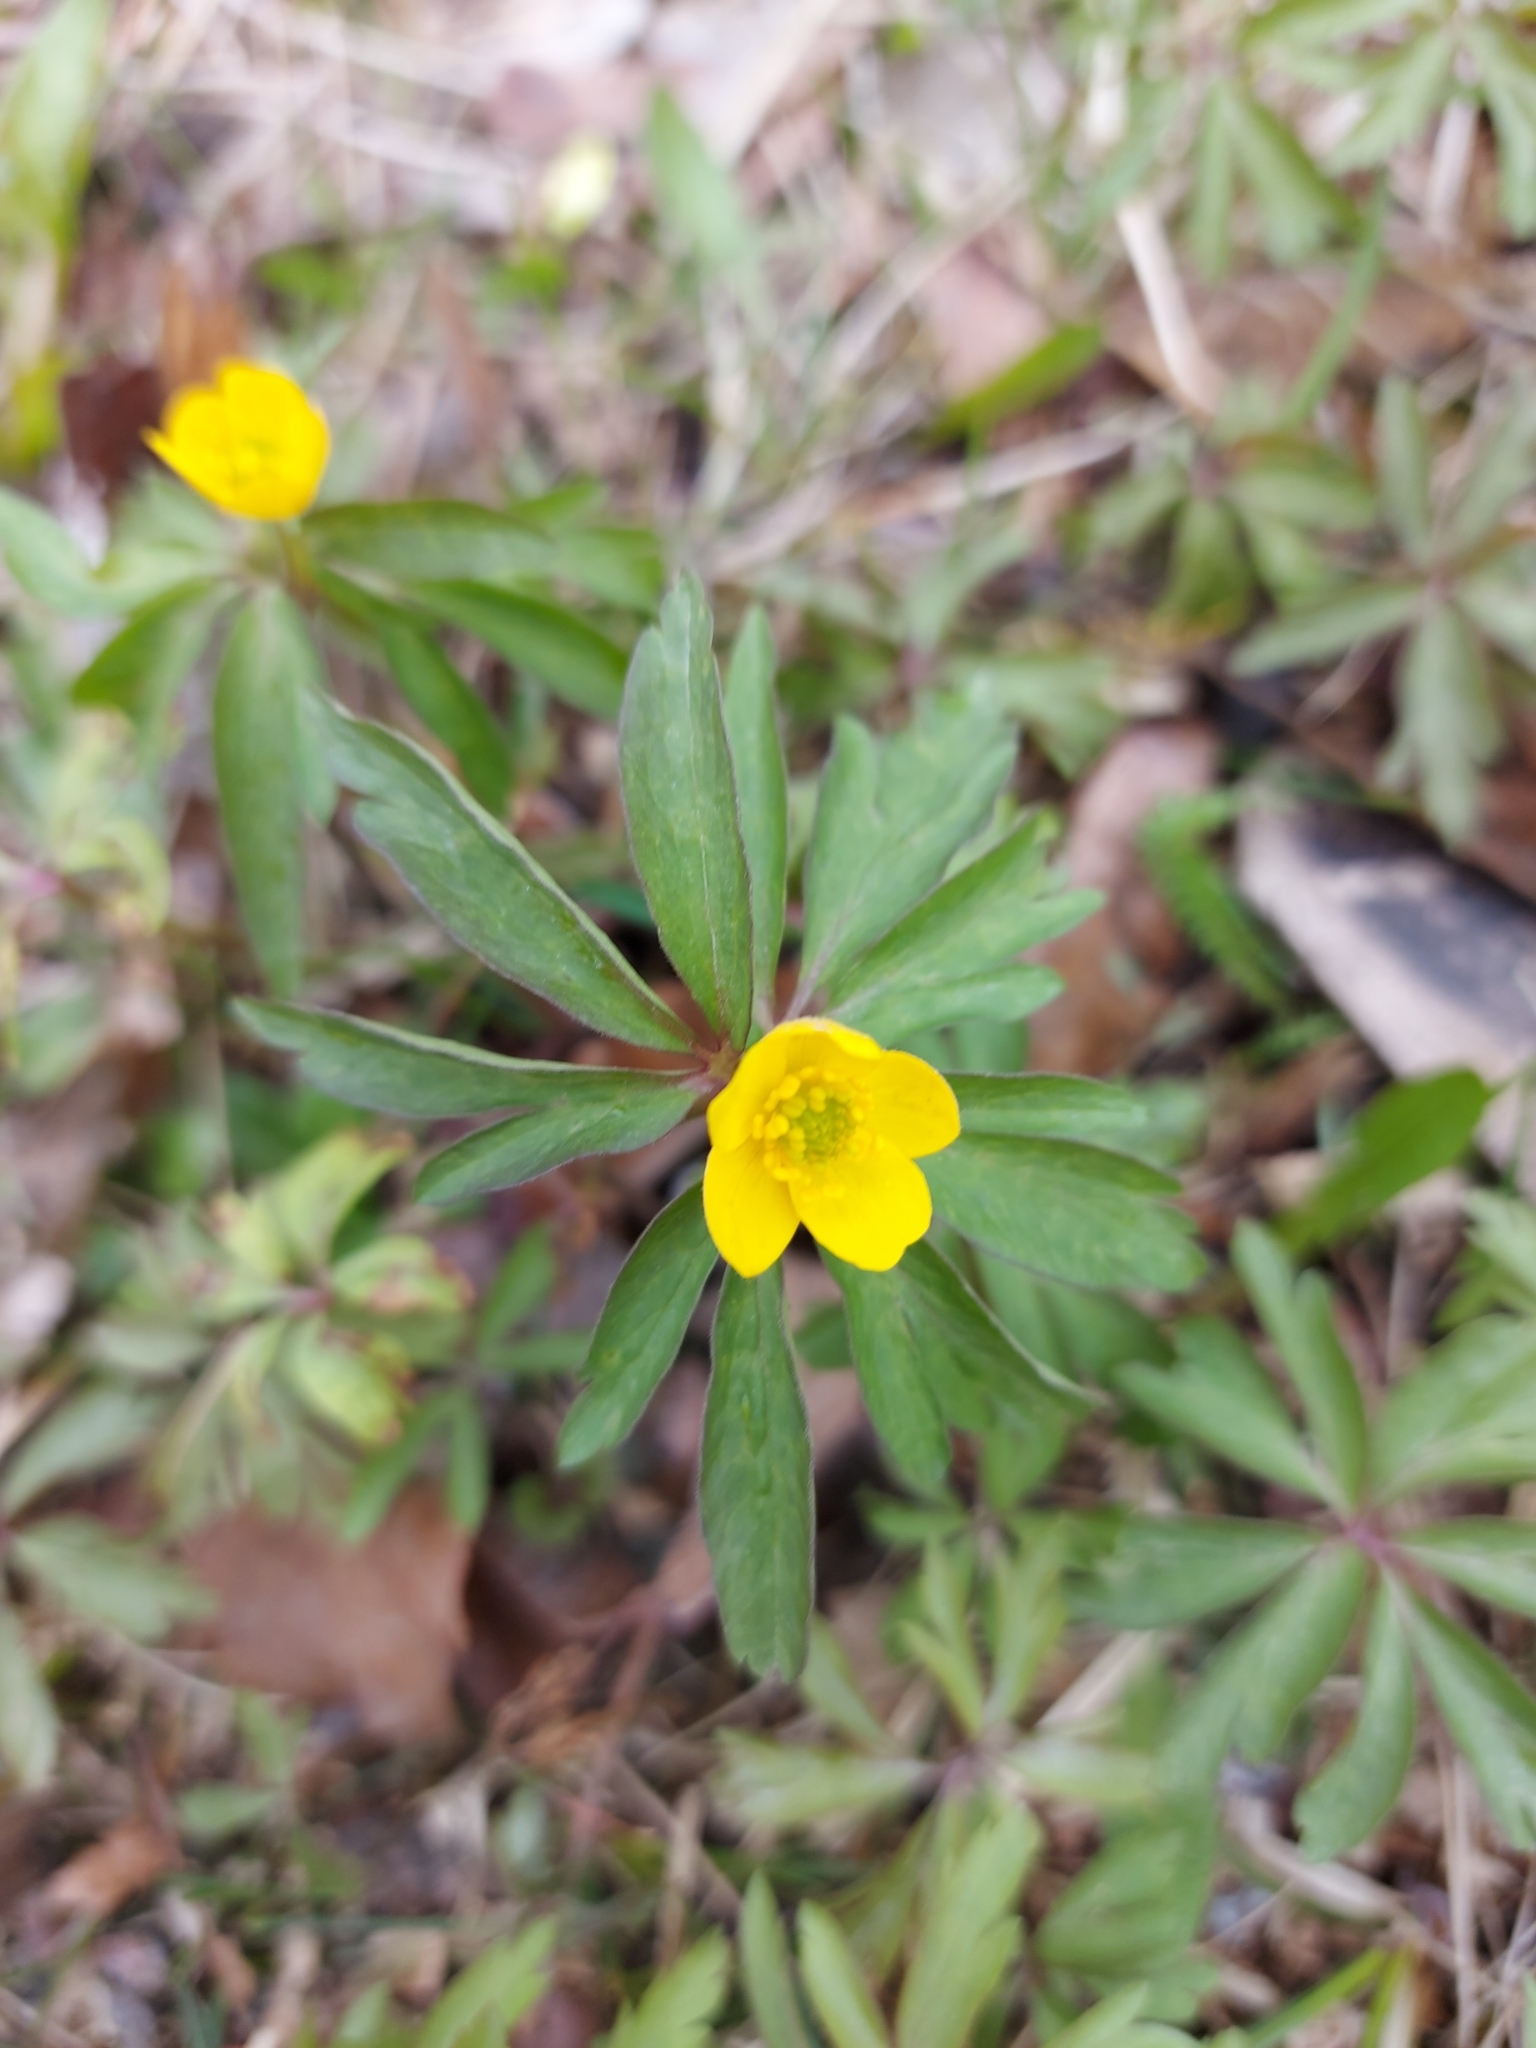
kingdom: Plantae
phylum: Tracheophyta
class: Magnoliopsida
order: Ranunculales
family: Ranunculaceae
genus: Anemone
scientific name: Anemone ranunculoides
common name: Yellow anemone
